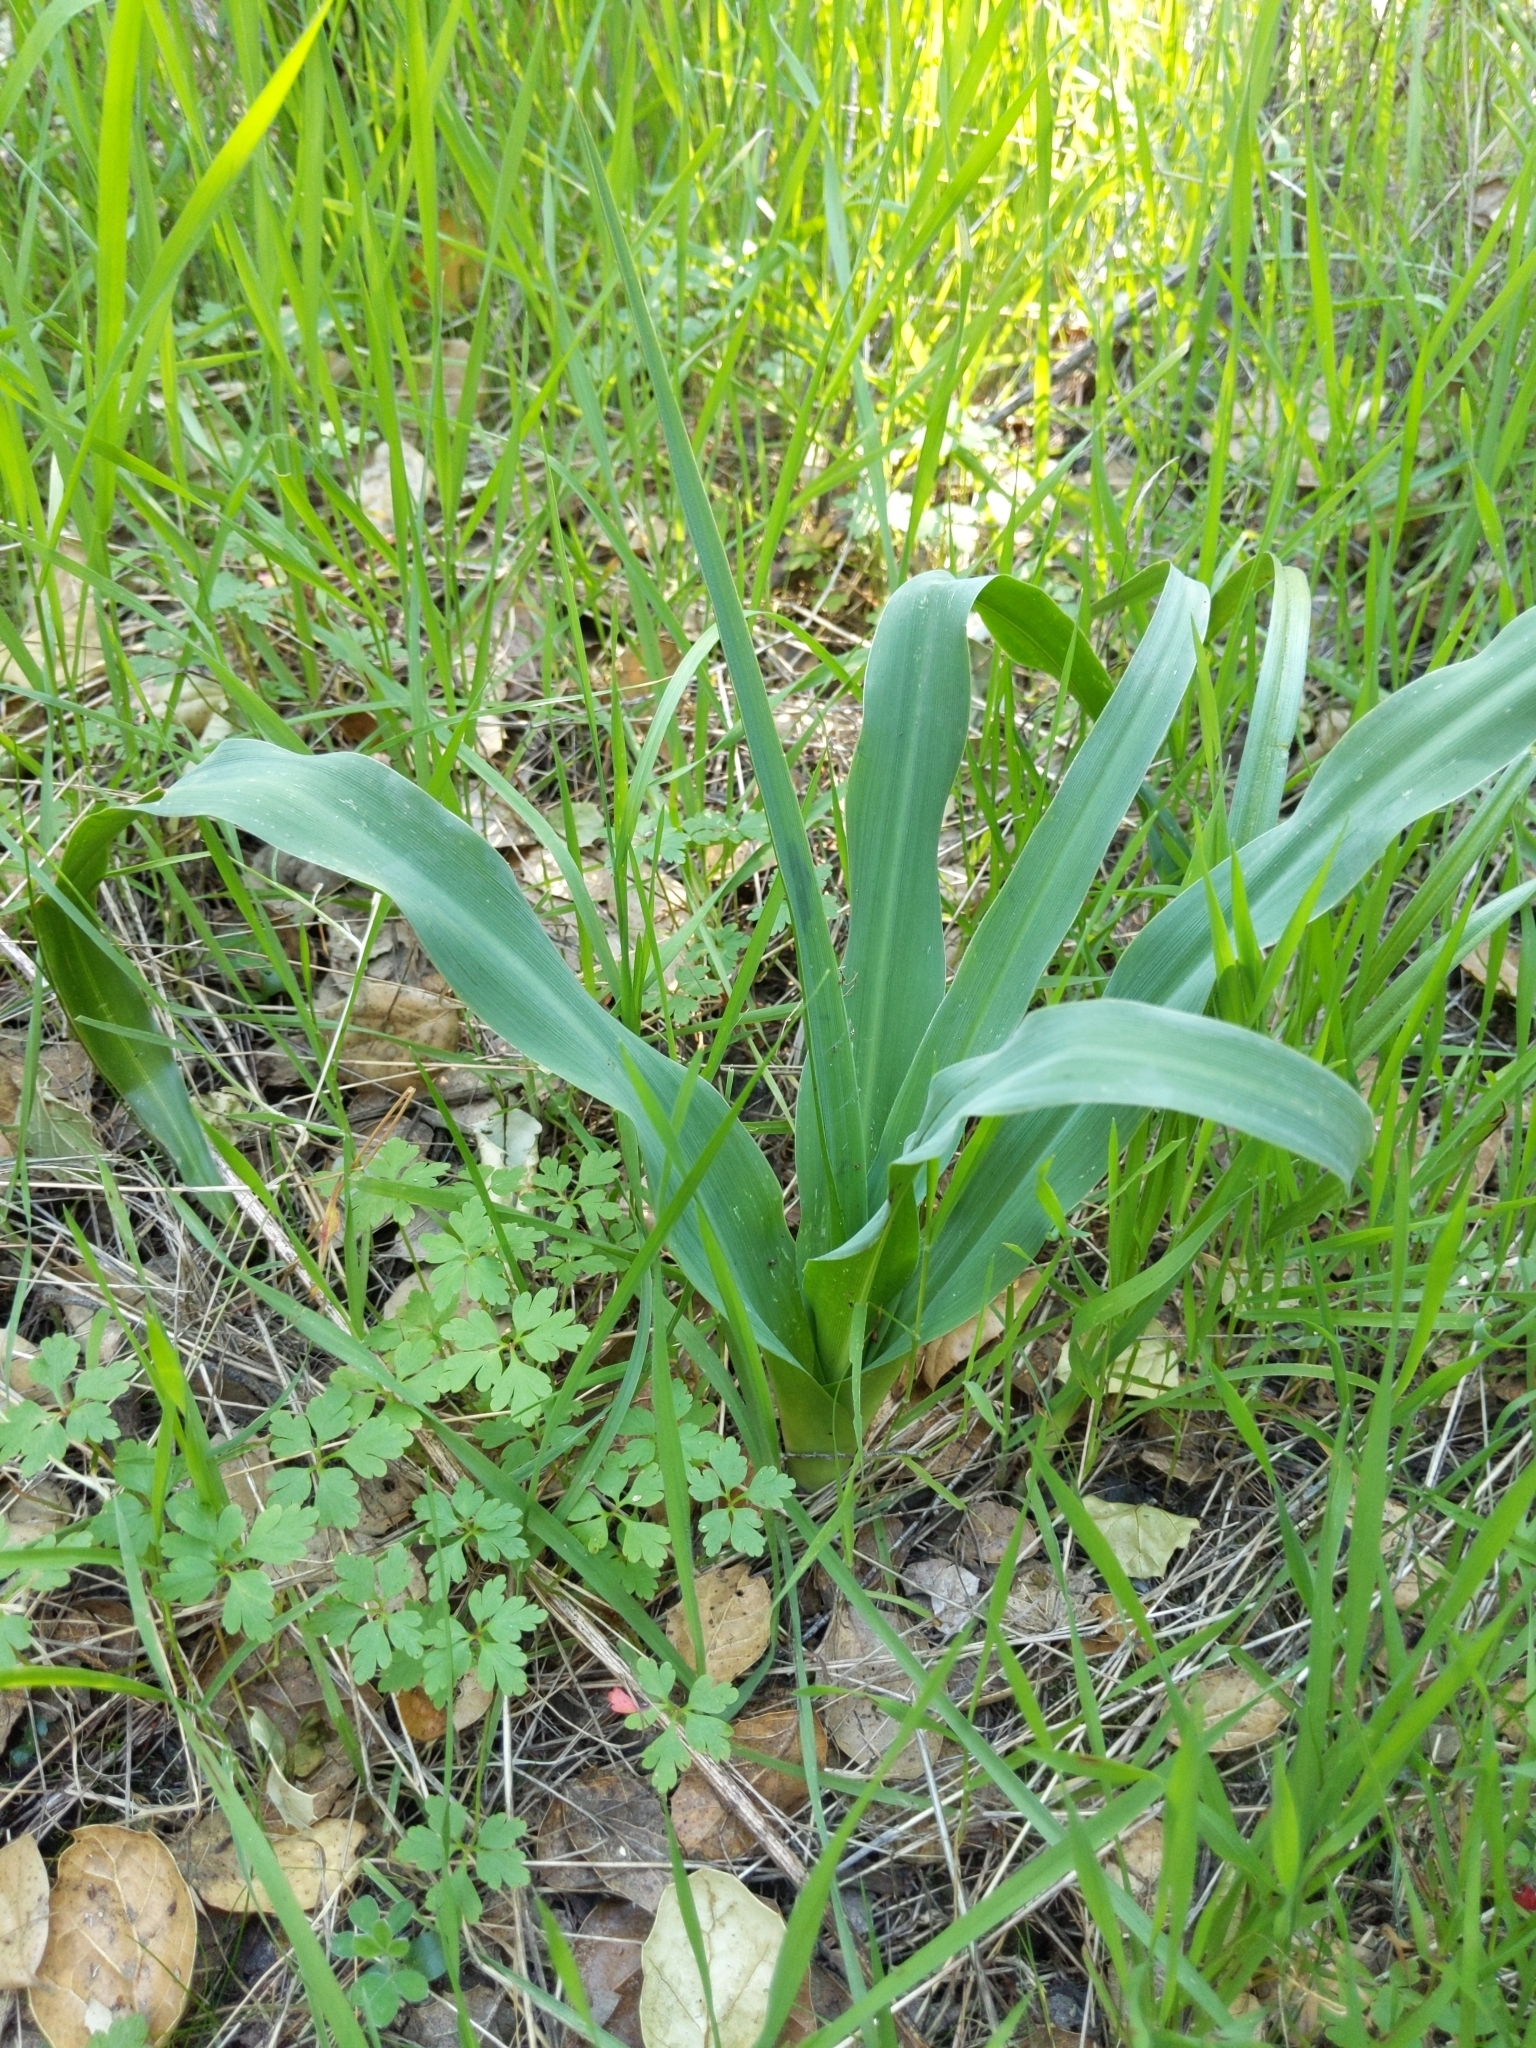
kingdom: Plantae
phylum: Tracheophyta
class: Liliopsida
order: Asparagales
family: Asparagaceae
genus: Chlorogalum
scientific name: Chlorogalum pomeridianum
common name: Amole
